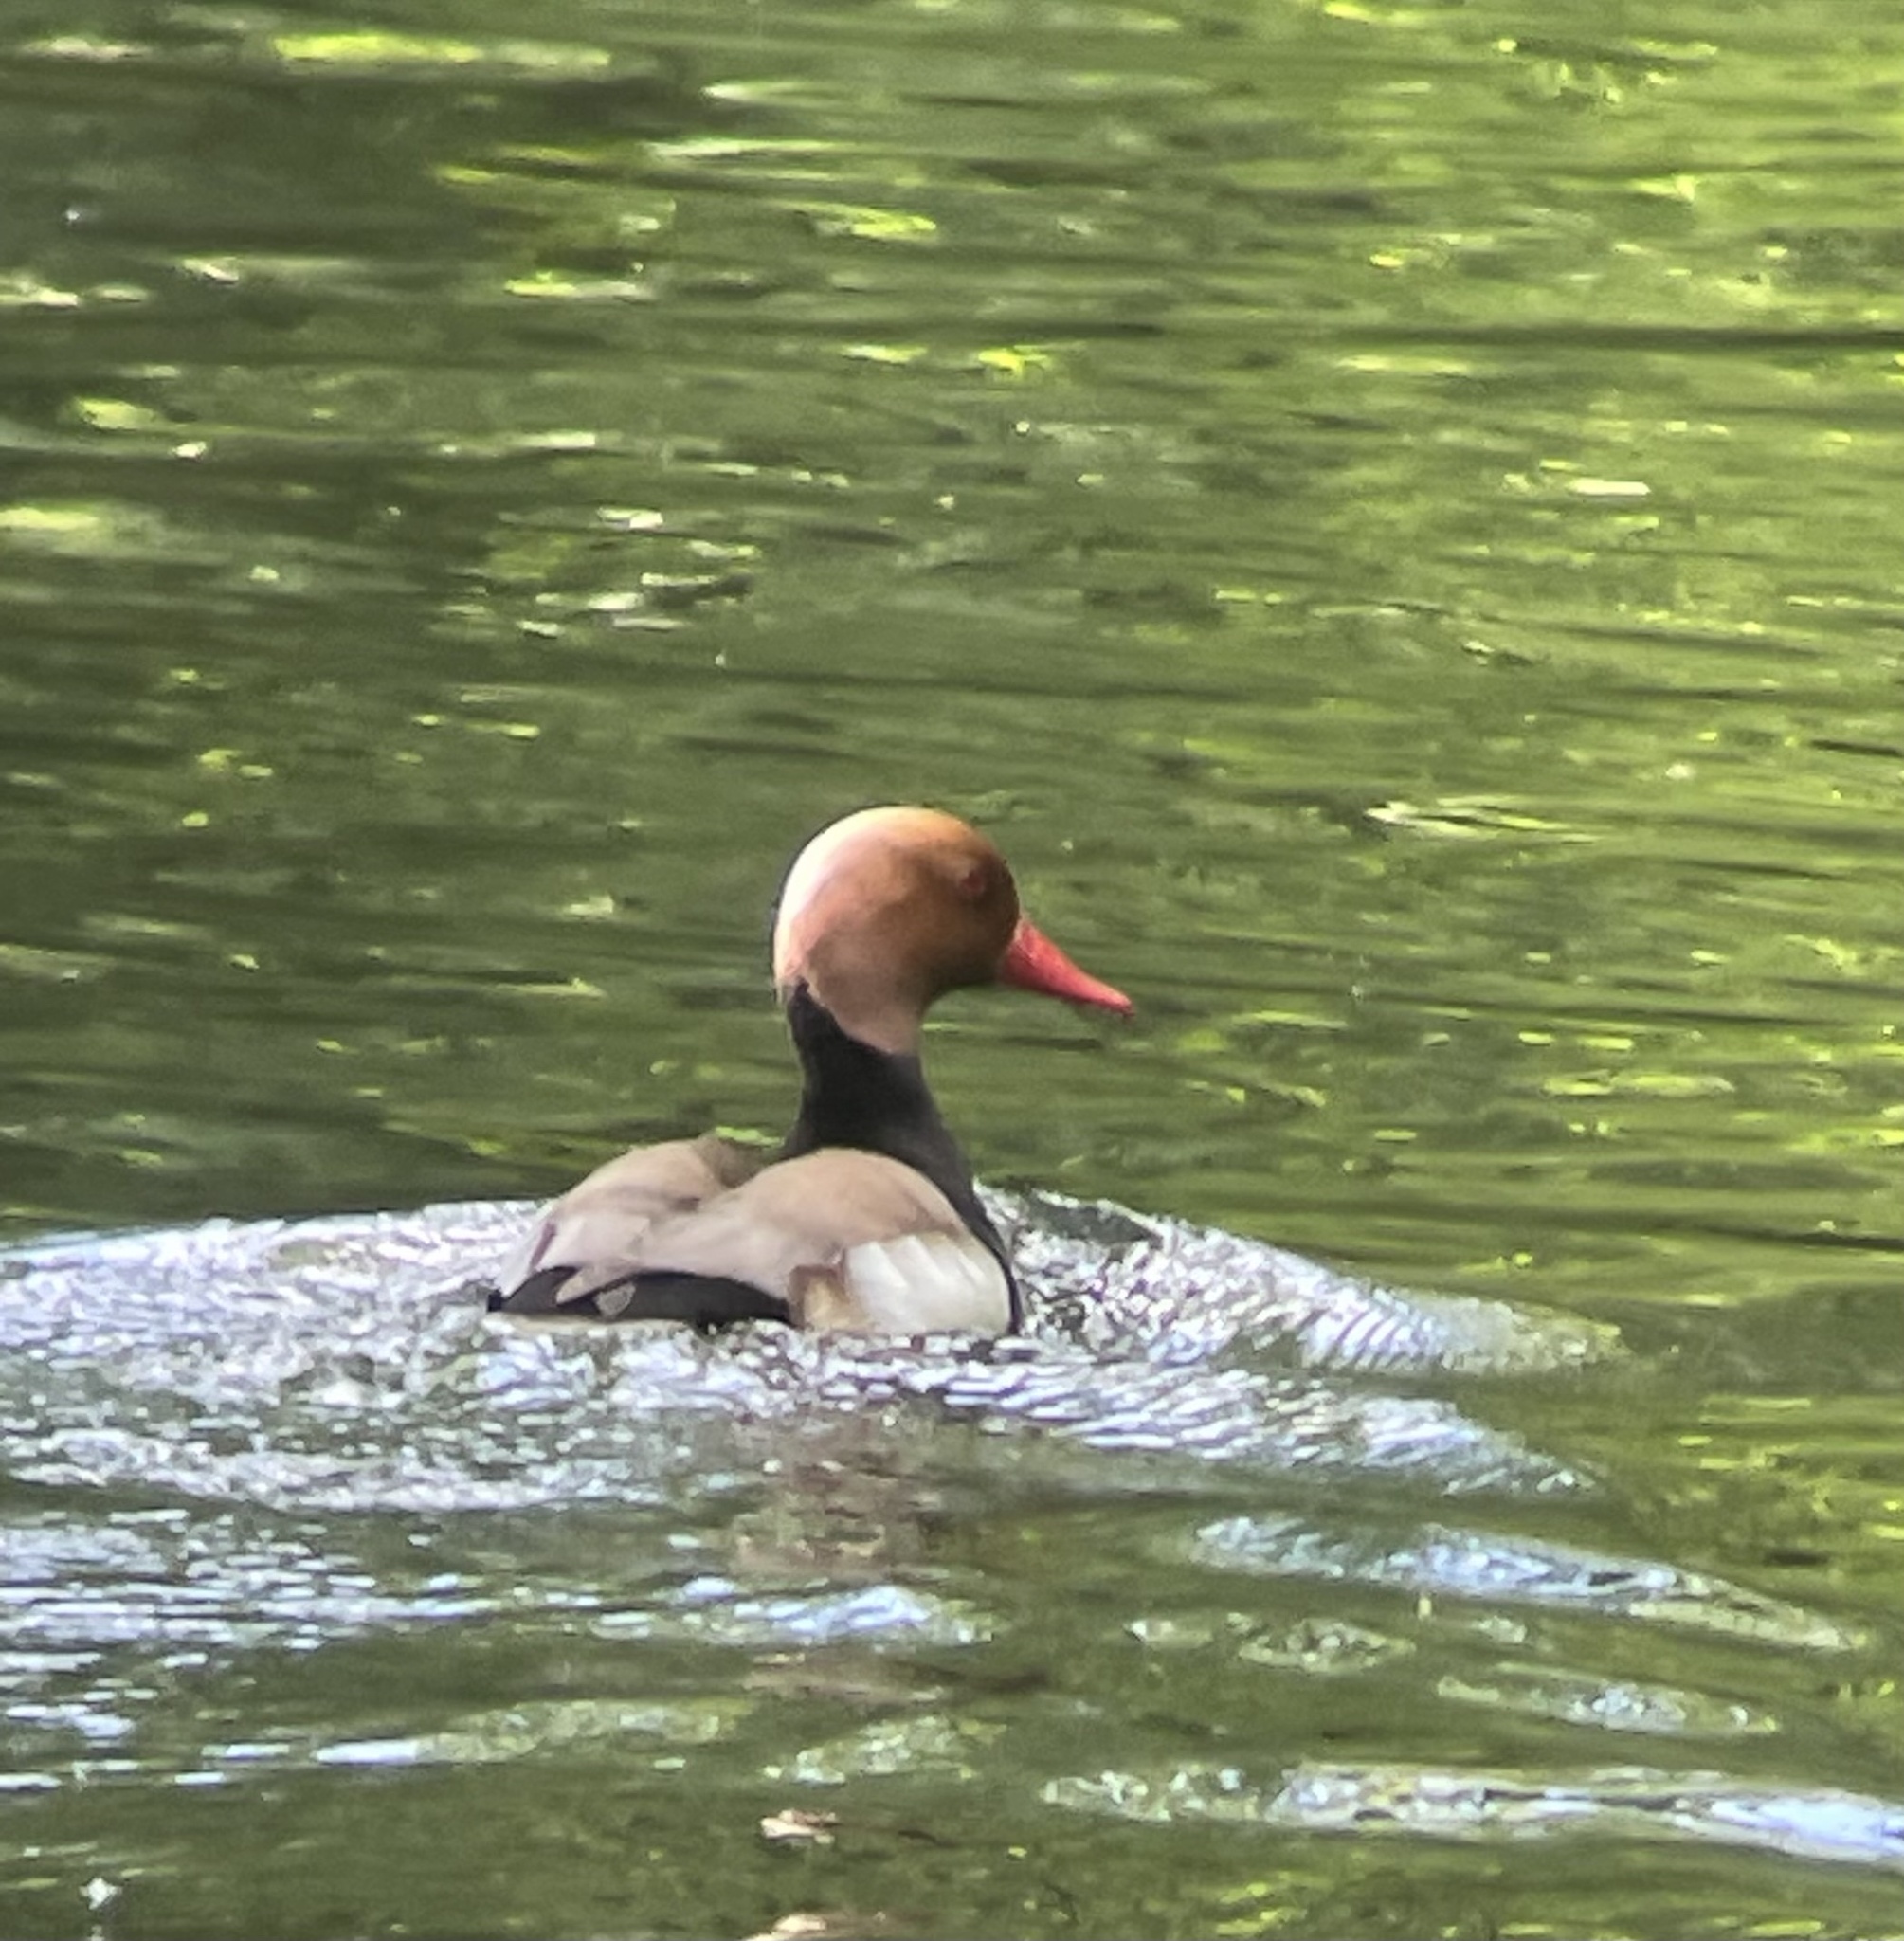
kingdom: Animalia
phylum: Chordata
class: Aves
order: Anseriformes
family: Anatidae
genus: Netta
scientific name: Netta rufina
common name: Red-crested pochard
